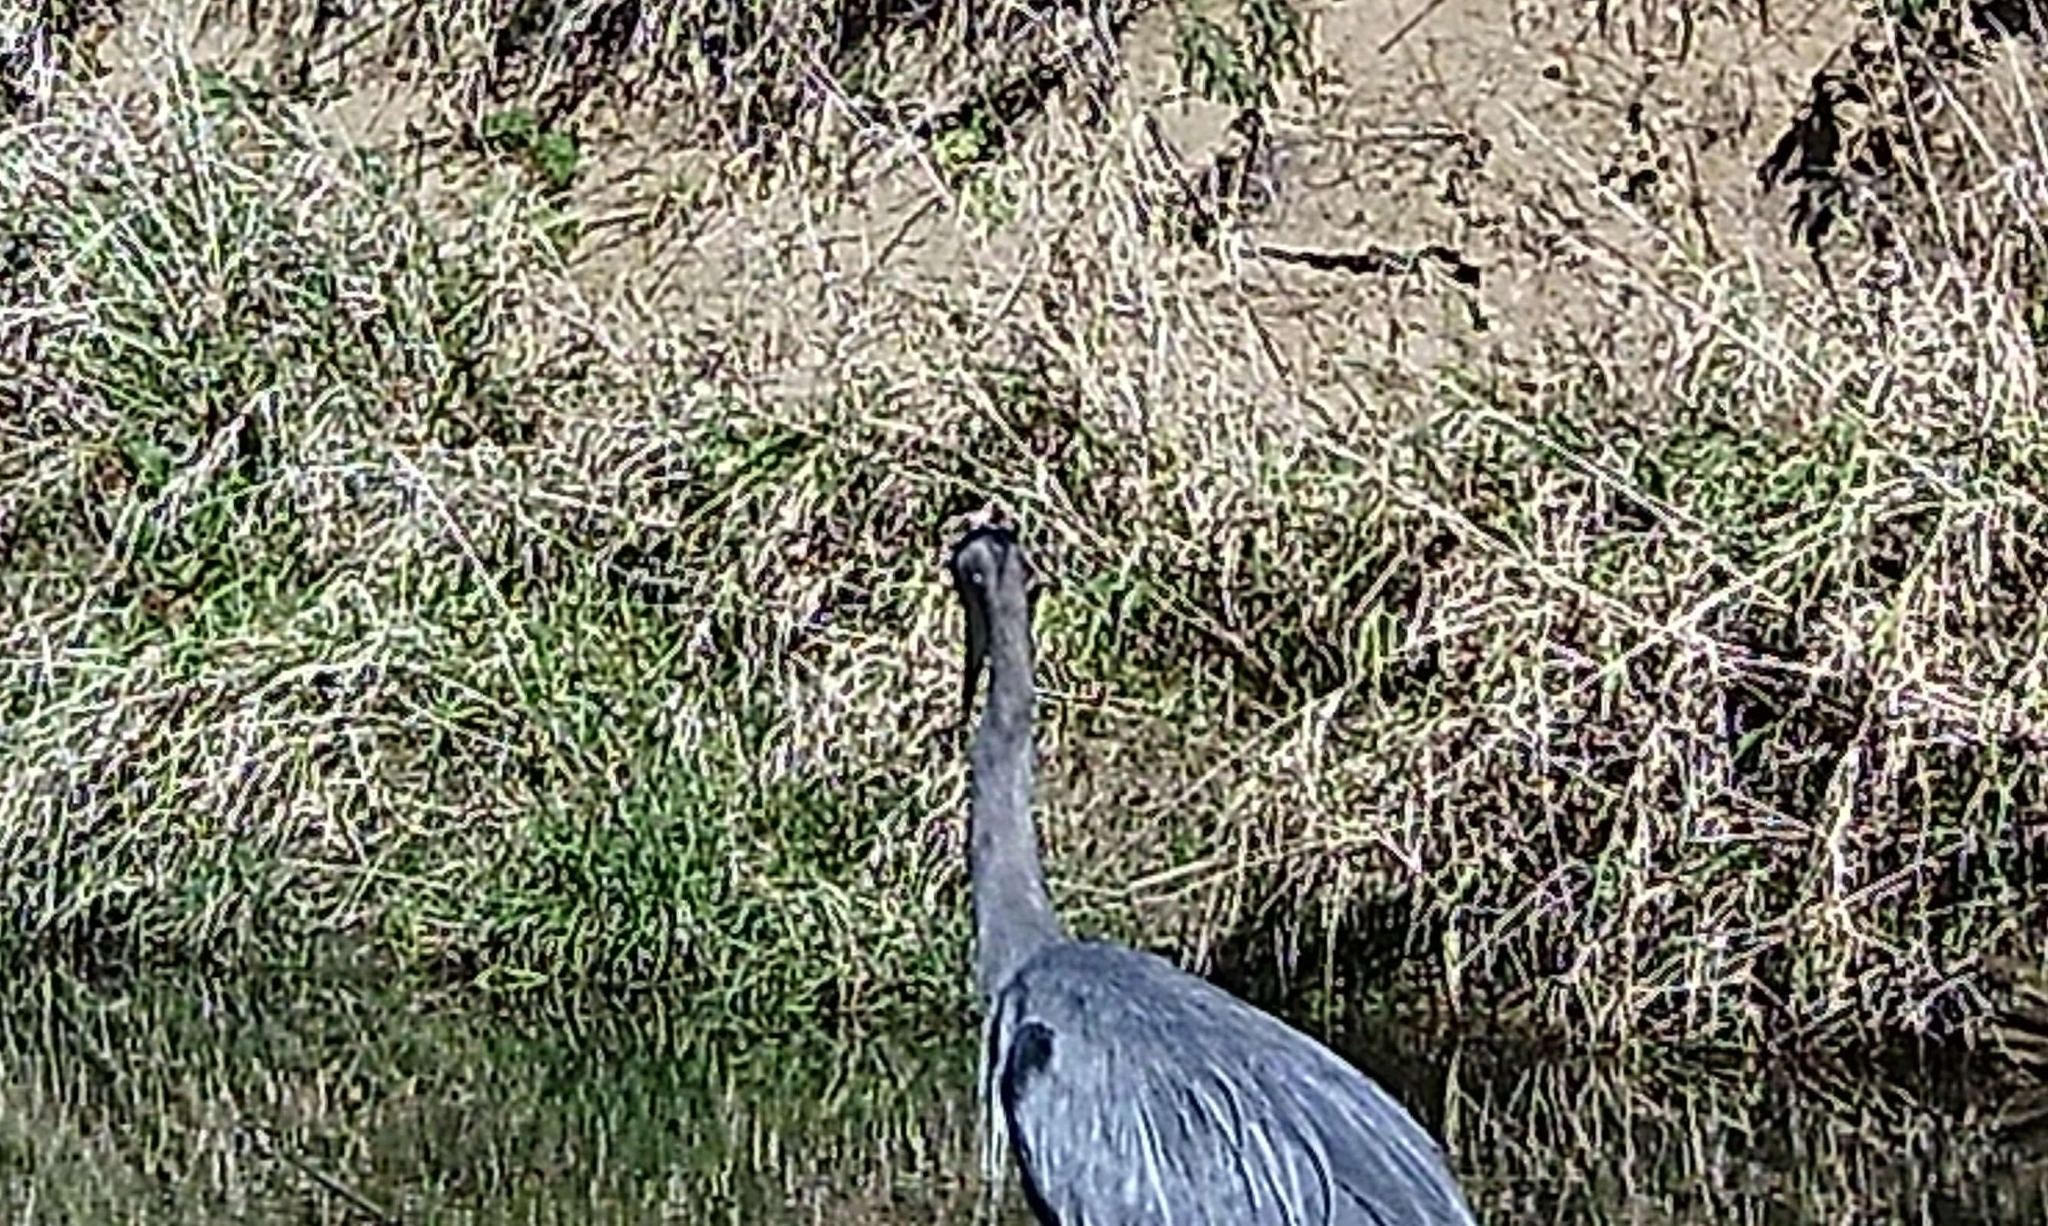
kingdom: Animalia
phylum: Chordata
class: Aves
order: Pelecaniformes
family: Ardeidae
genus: Ardea
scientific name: Ardea herodias
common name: Great blue heron
